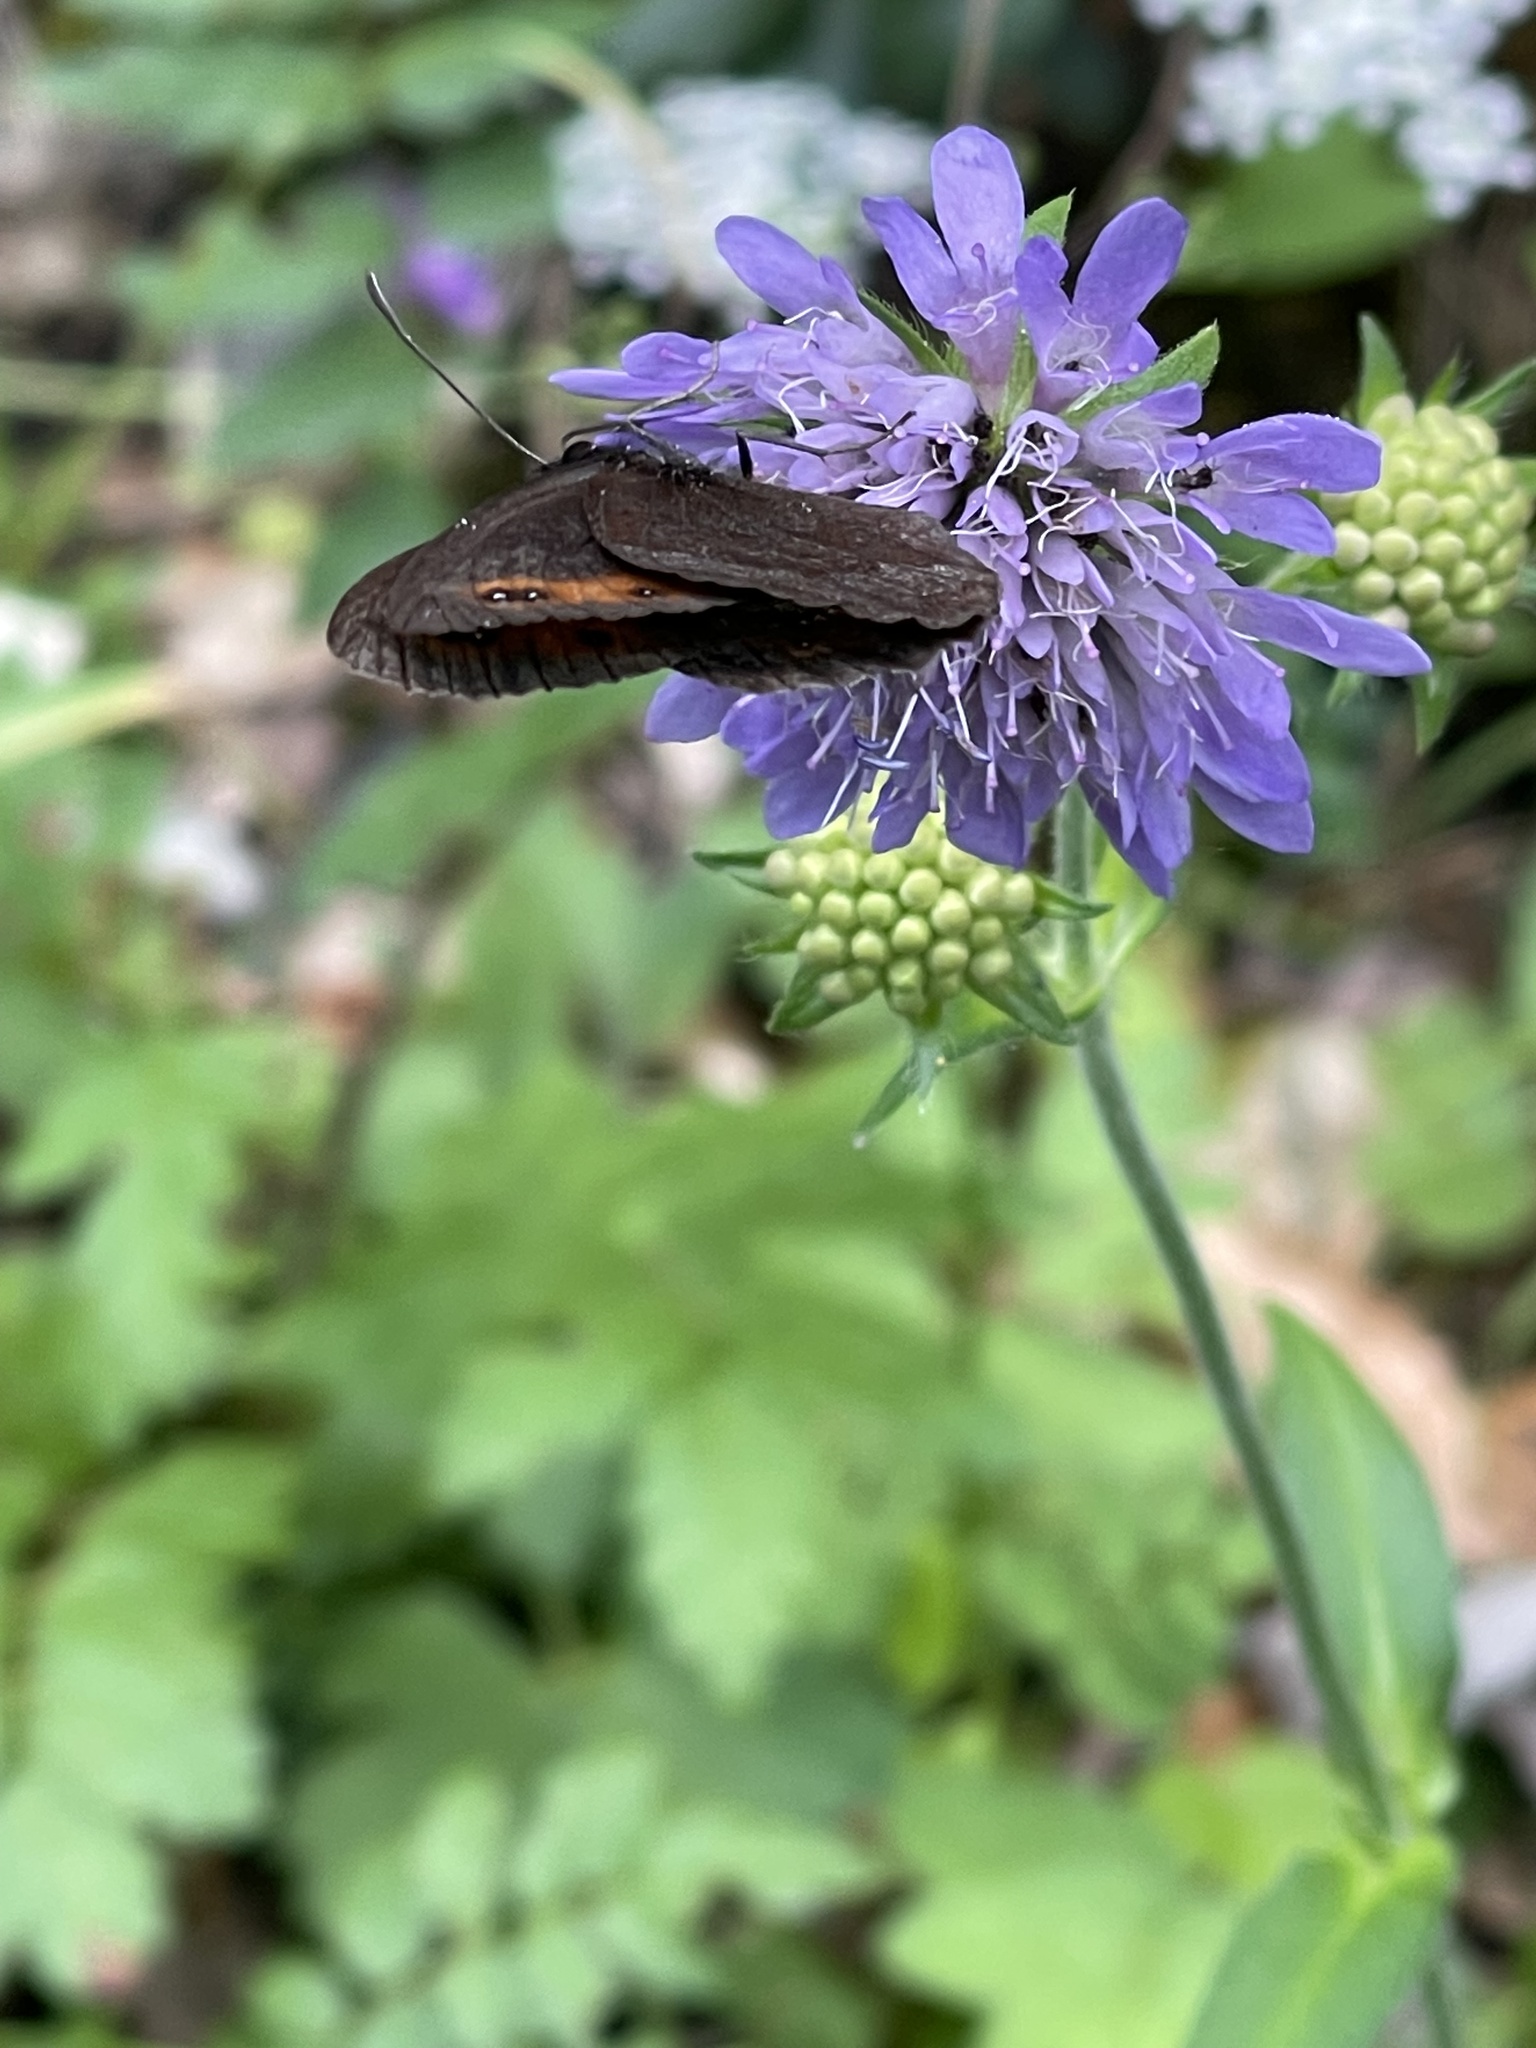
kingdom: Animalia
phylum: Arthropoda
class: Insecta
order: Lepidoptera
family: Nymphalidae
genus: Erebia
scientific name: Erebia aethiops
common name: Scotch argus
